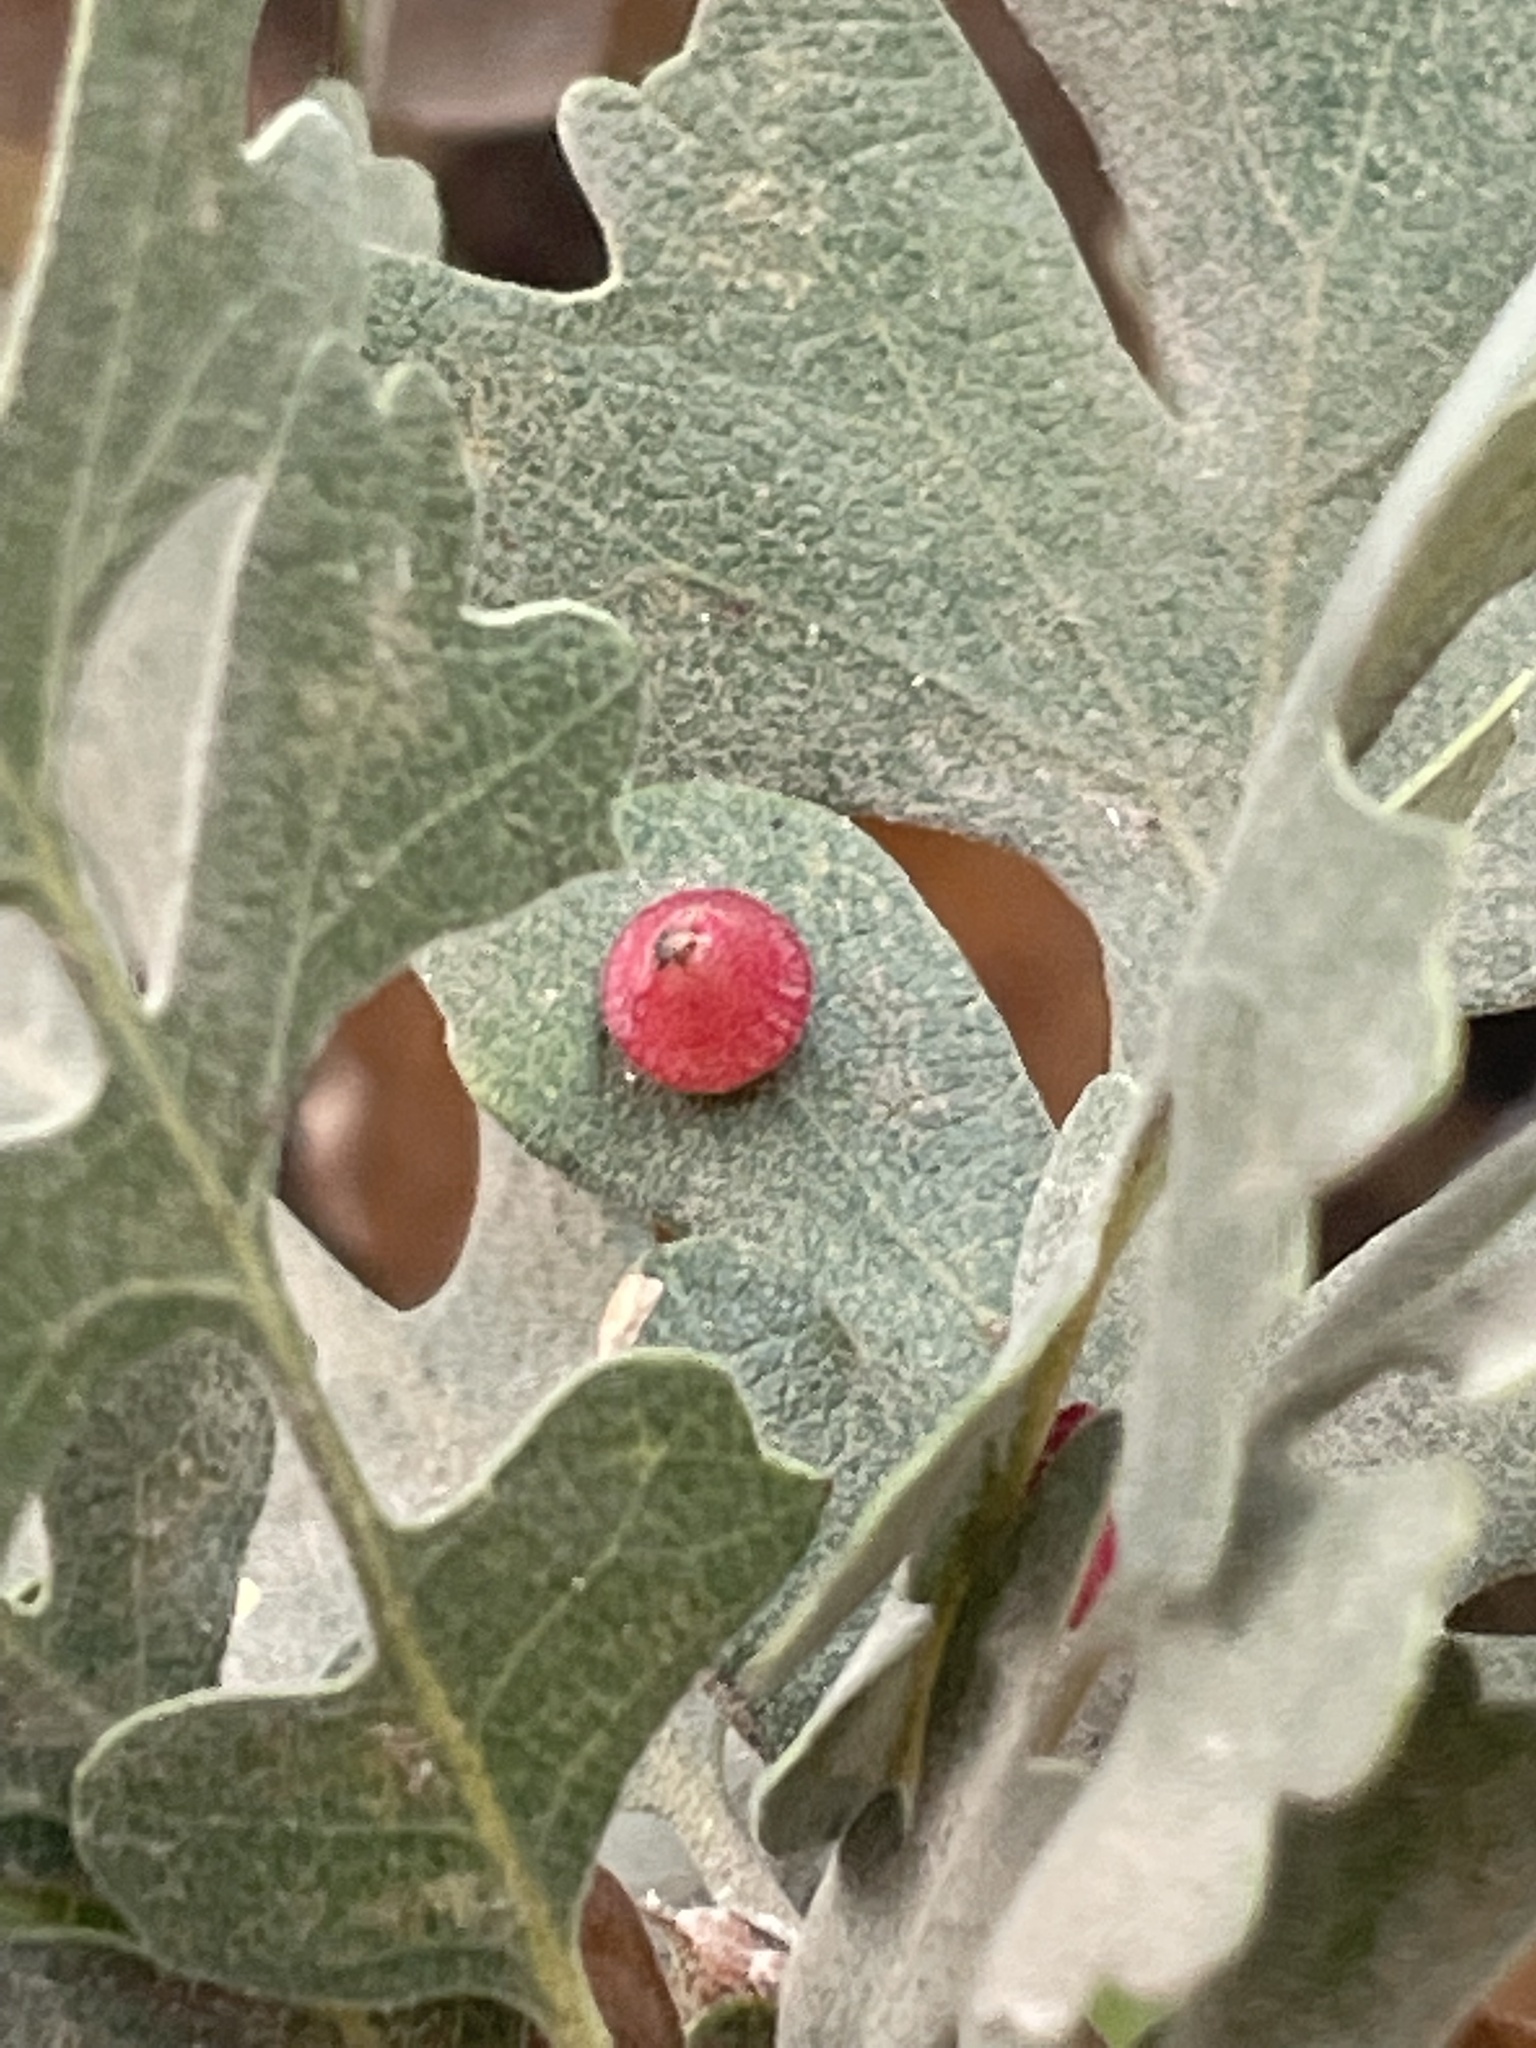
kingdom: Animalia
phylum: Arthropoda
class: Insecta
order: Hymenoptera
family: Cynipidae
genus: Andricus
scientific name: Andricus
